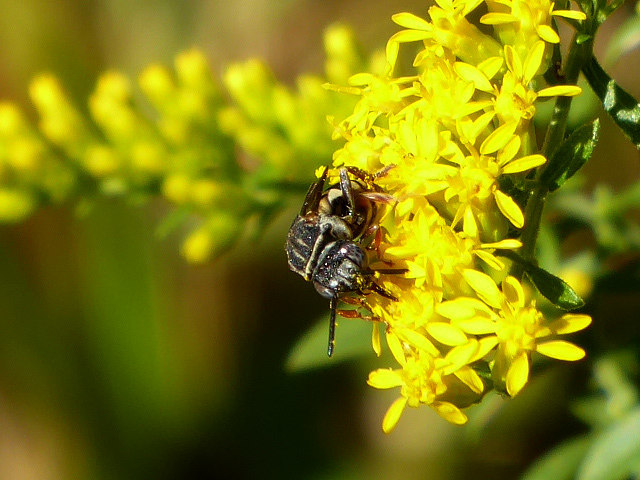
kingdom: Animalia
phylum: Arthropoda
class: Insecta
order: Hymenoptera
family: Apidae
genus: Epeolus
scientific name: Epeolus autumnalis
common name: Autumnal cellophane-cuckoo
